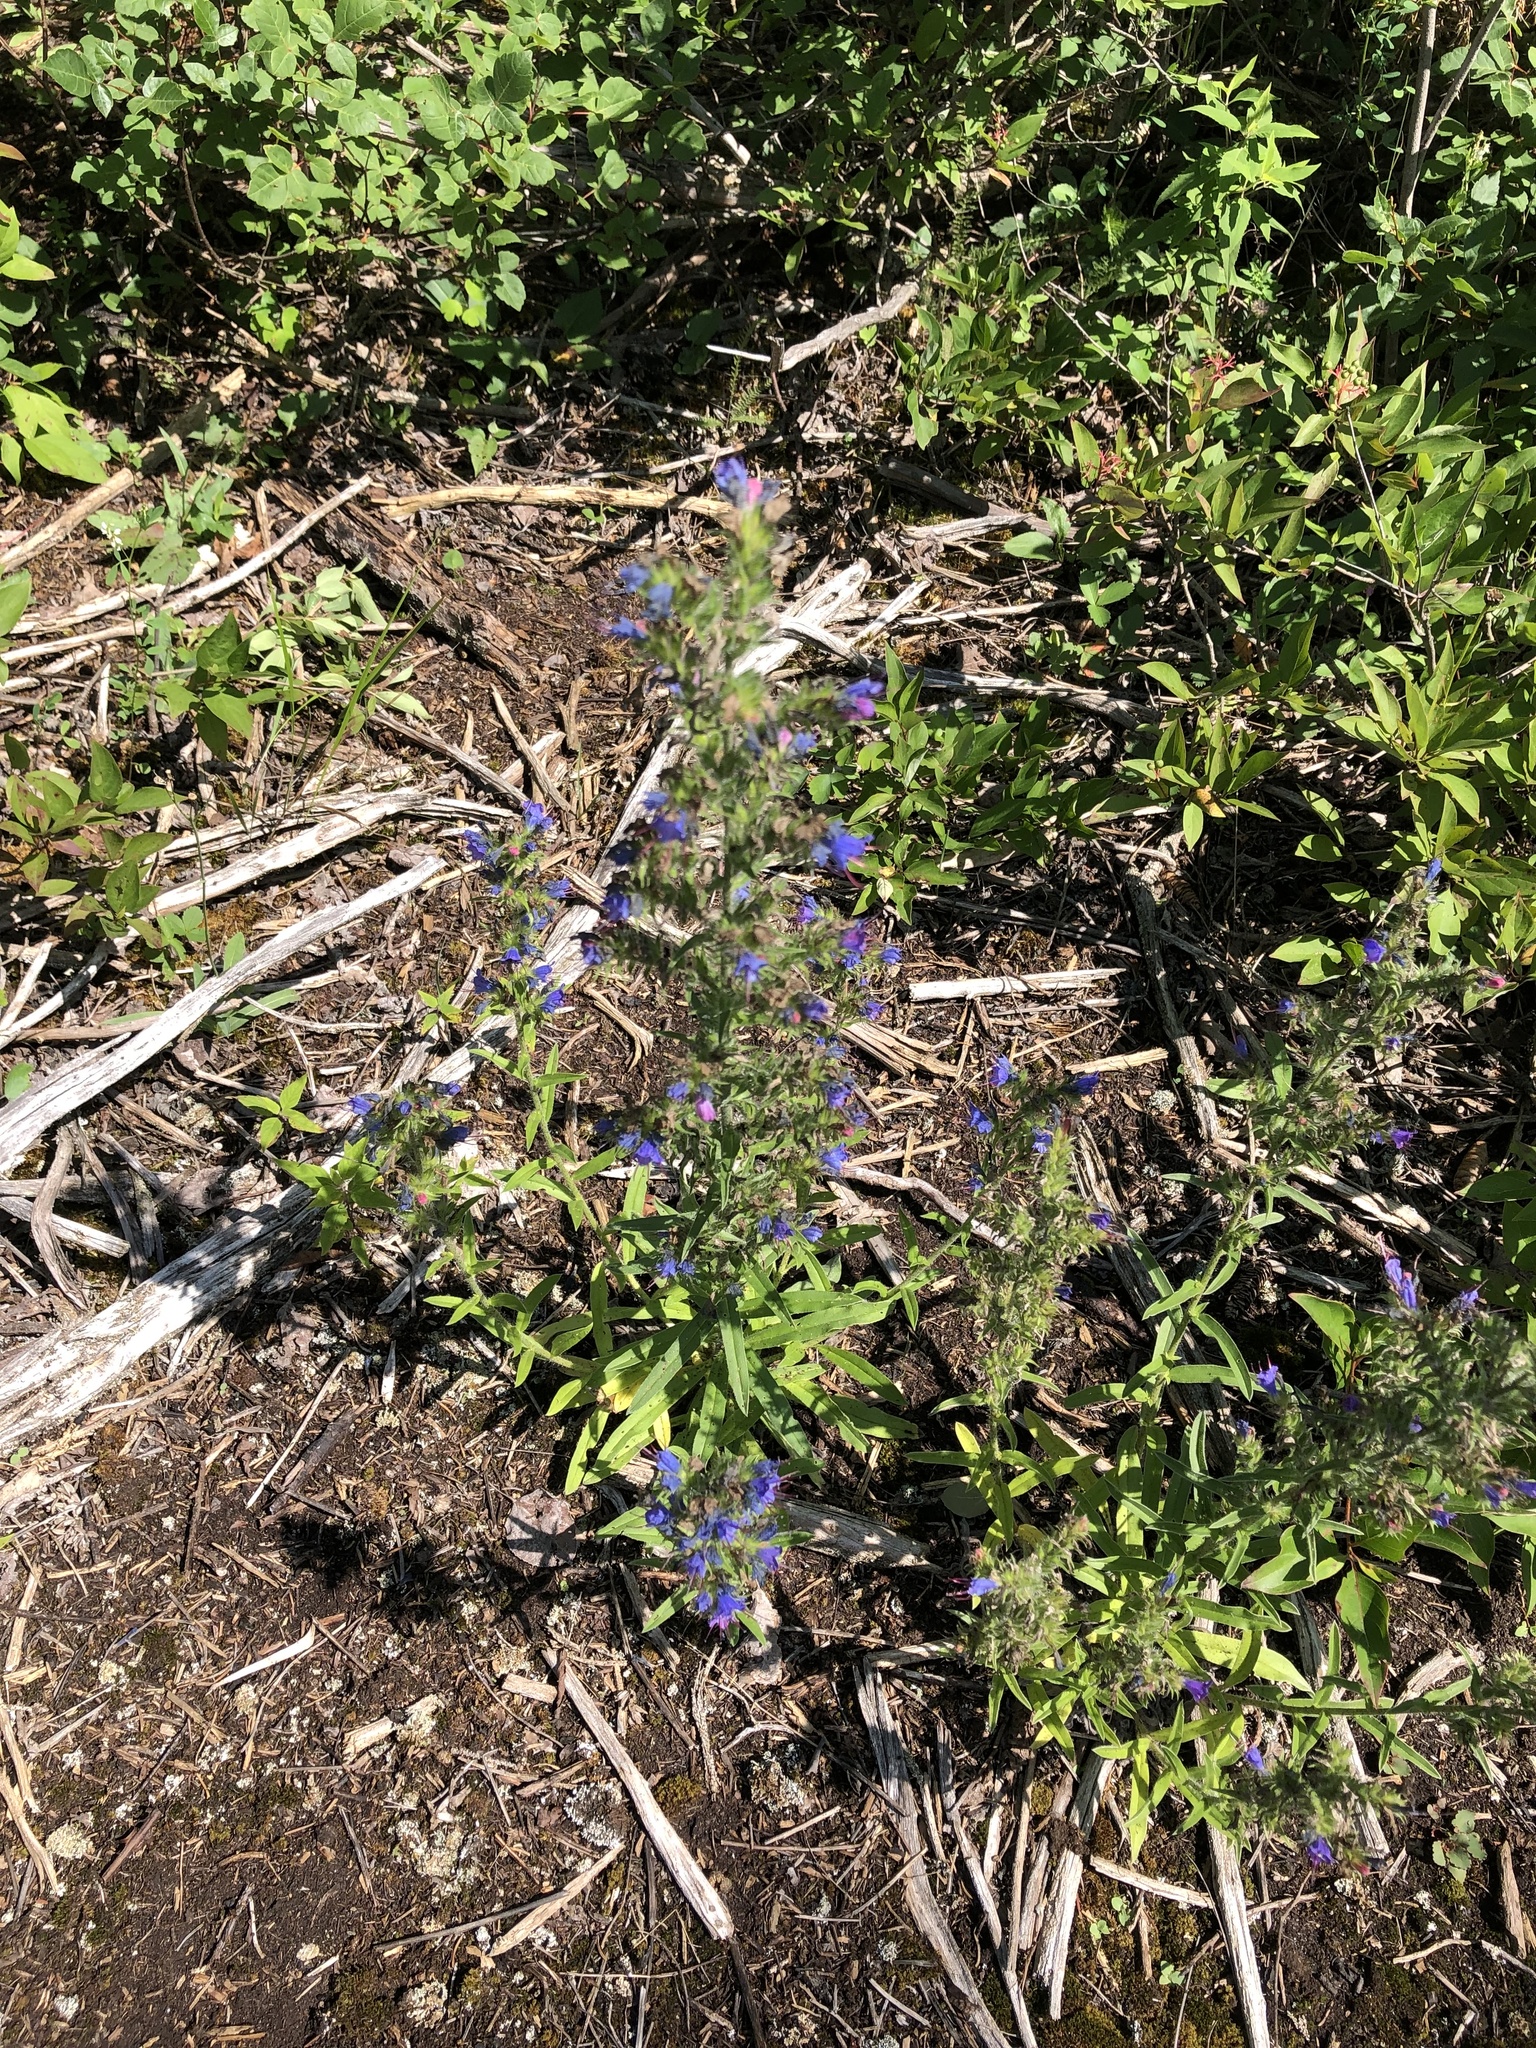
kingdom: Plantae
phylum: Tracheophyta
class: Magnoliopsida
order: Boraginales
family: Boraginaceae
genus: Echium
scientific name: Echium vulgare
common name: Common viper's bugloss
